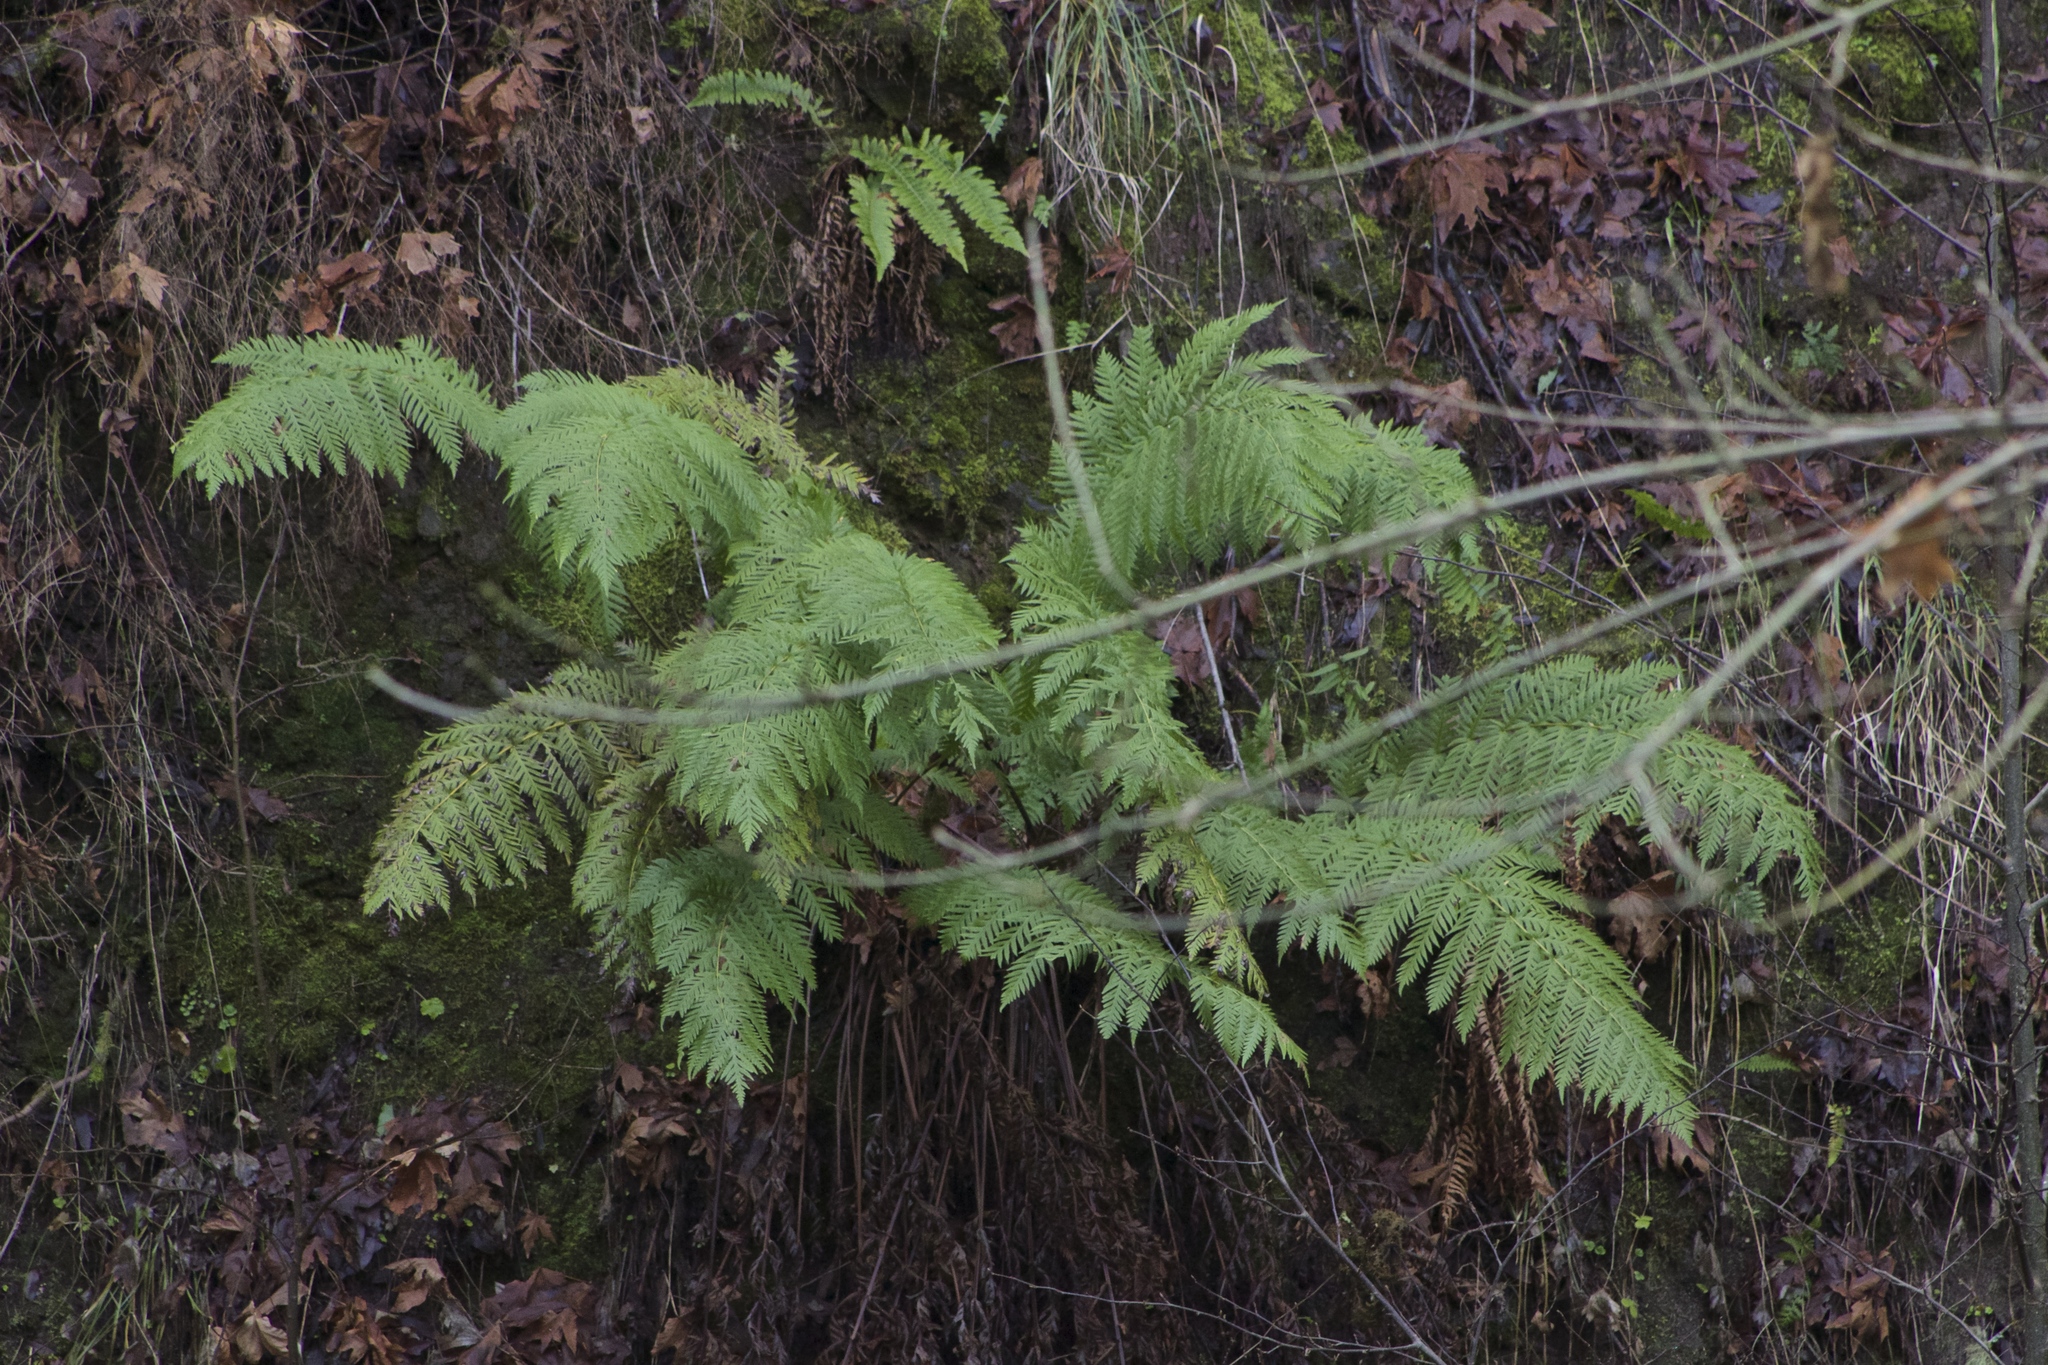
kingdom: Plantae
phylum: Tracheophyta
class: Polypodiopsida
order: Polypodiales
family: Blechnaceae
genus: Woodwardia
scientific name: Woodwardia fimbriata
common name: Giant chain fern
